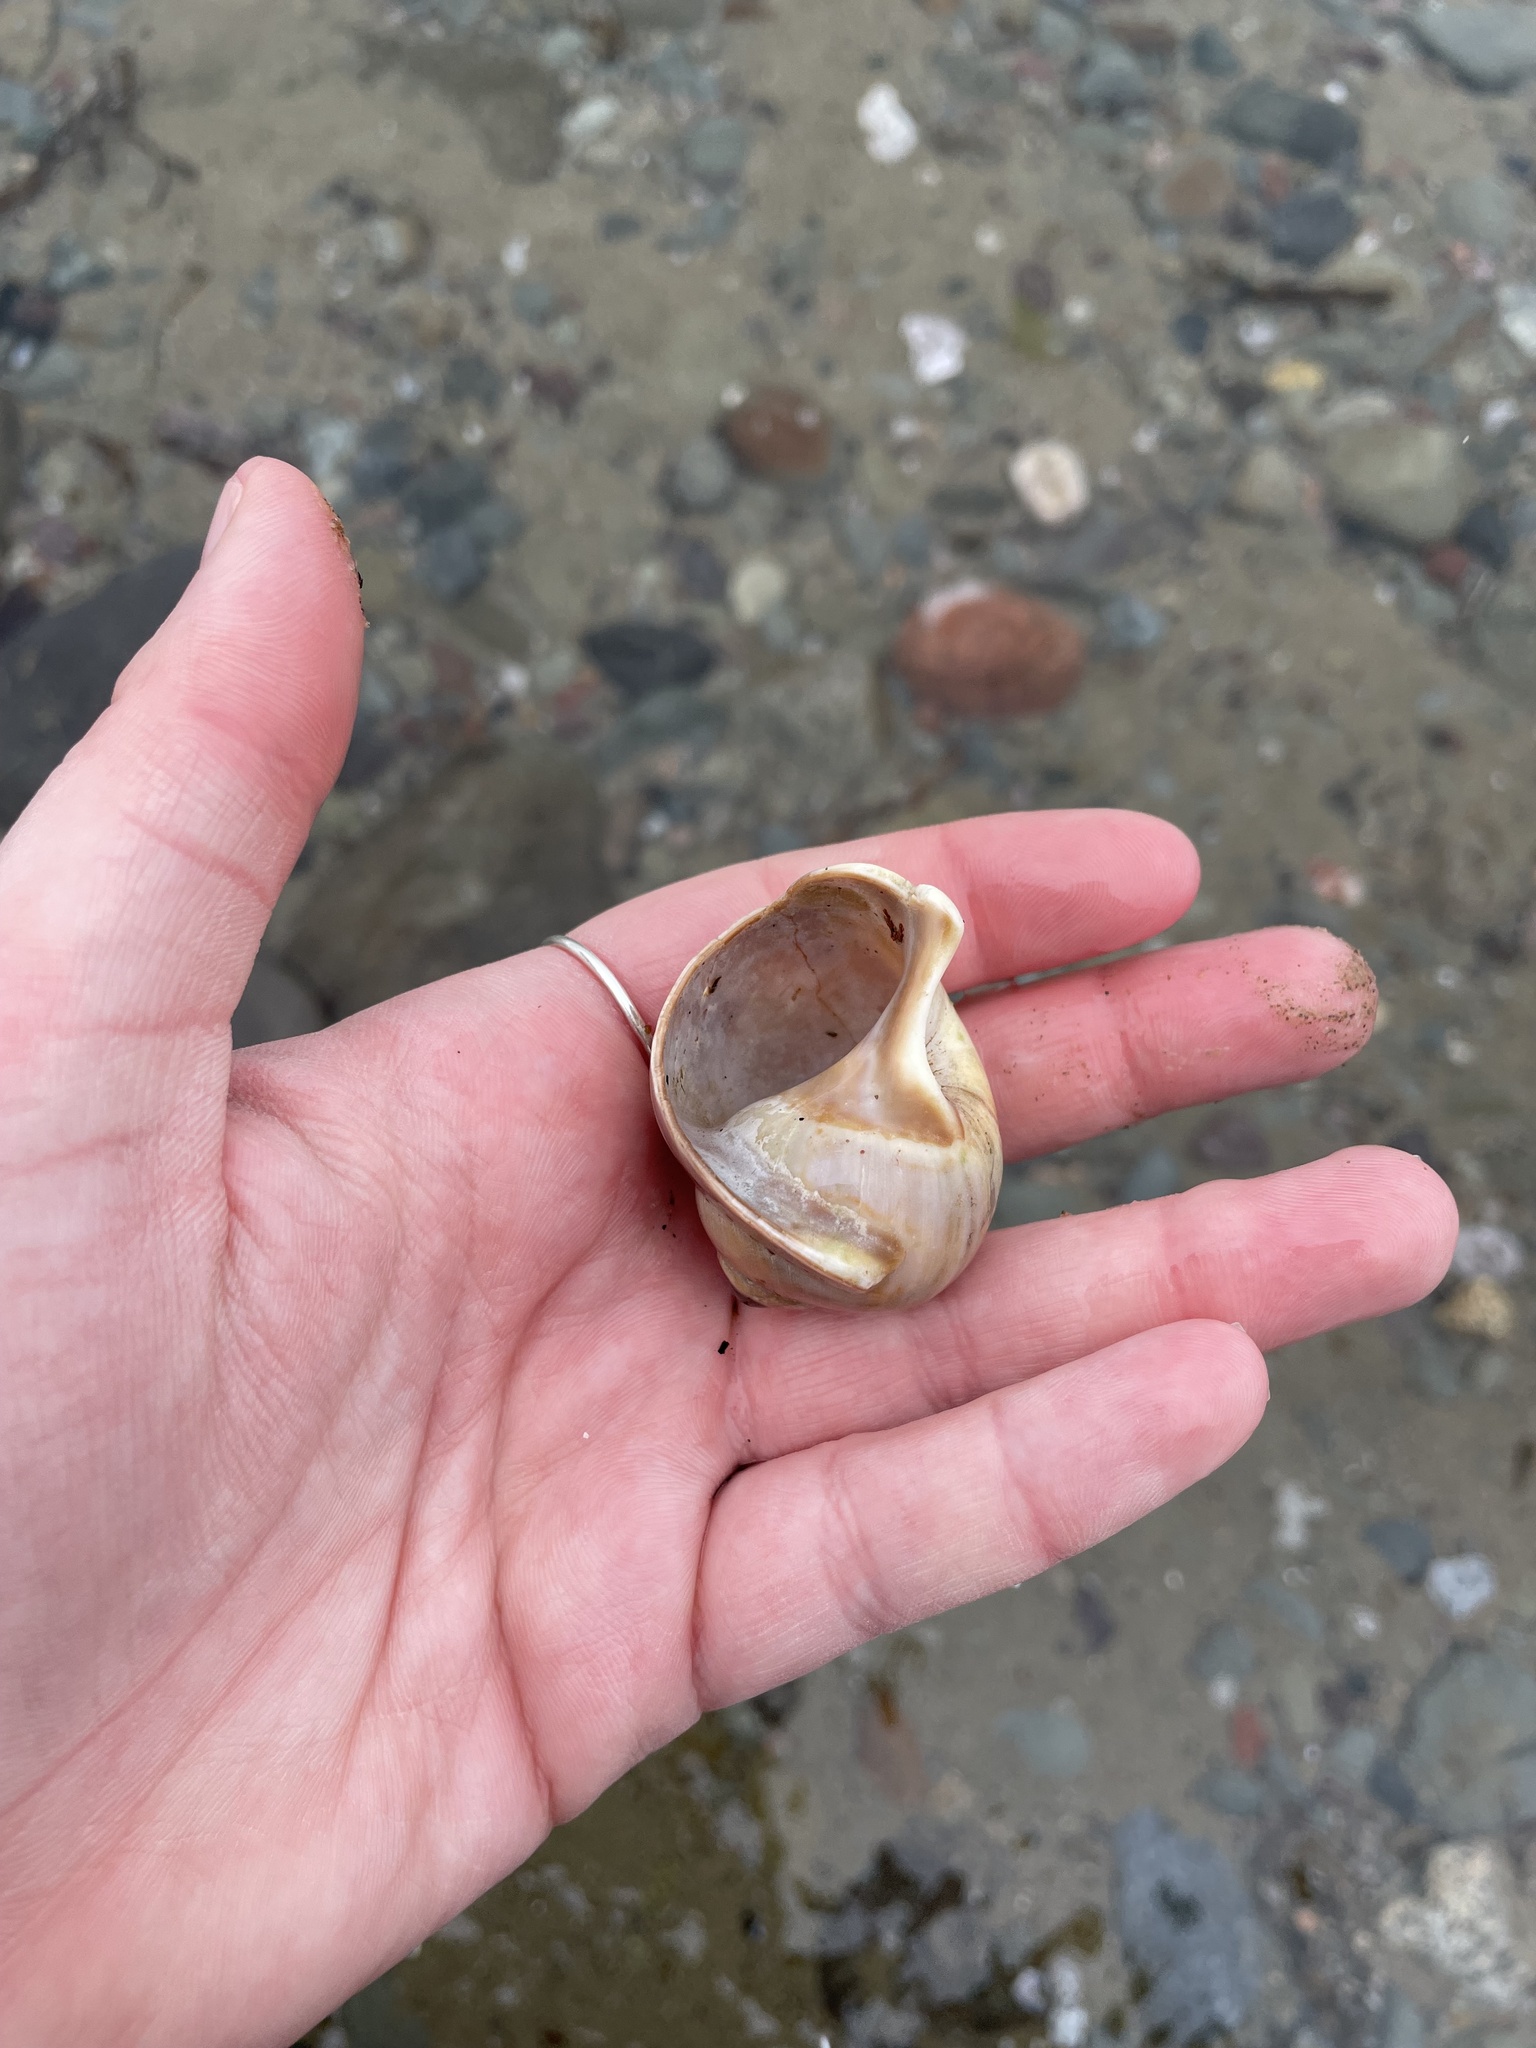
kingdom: Animalia
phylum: Mollusca
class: Gastropoda
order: Littorinimorpha
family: Naticidae
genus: Euspira
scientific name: Euspira heros
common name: Common northern moonsnail
